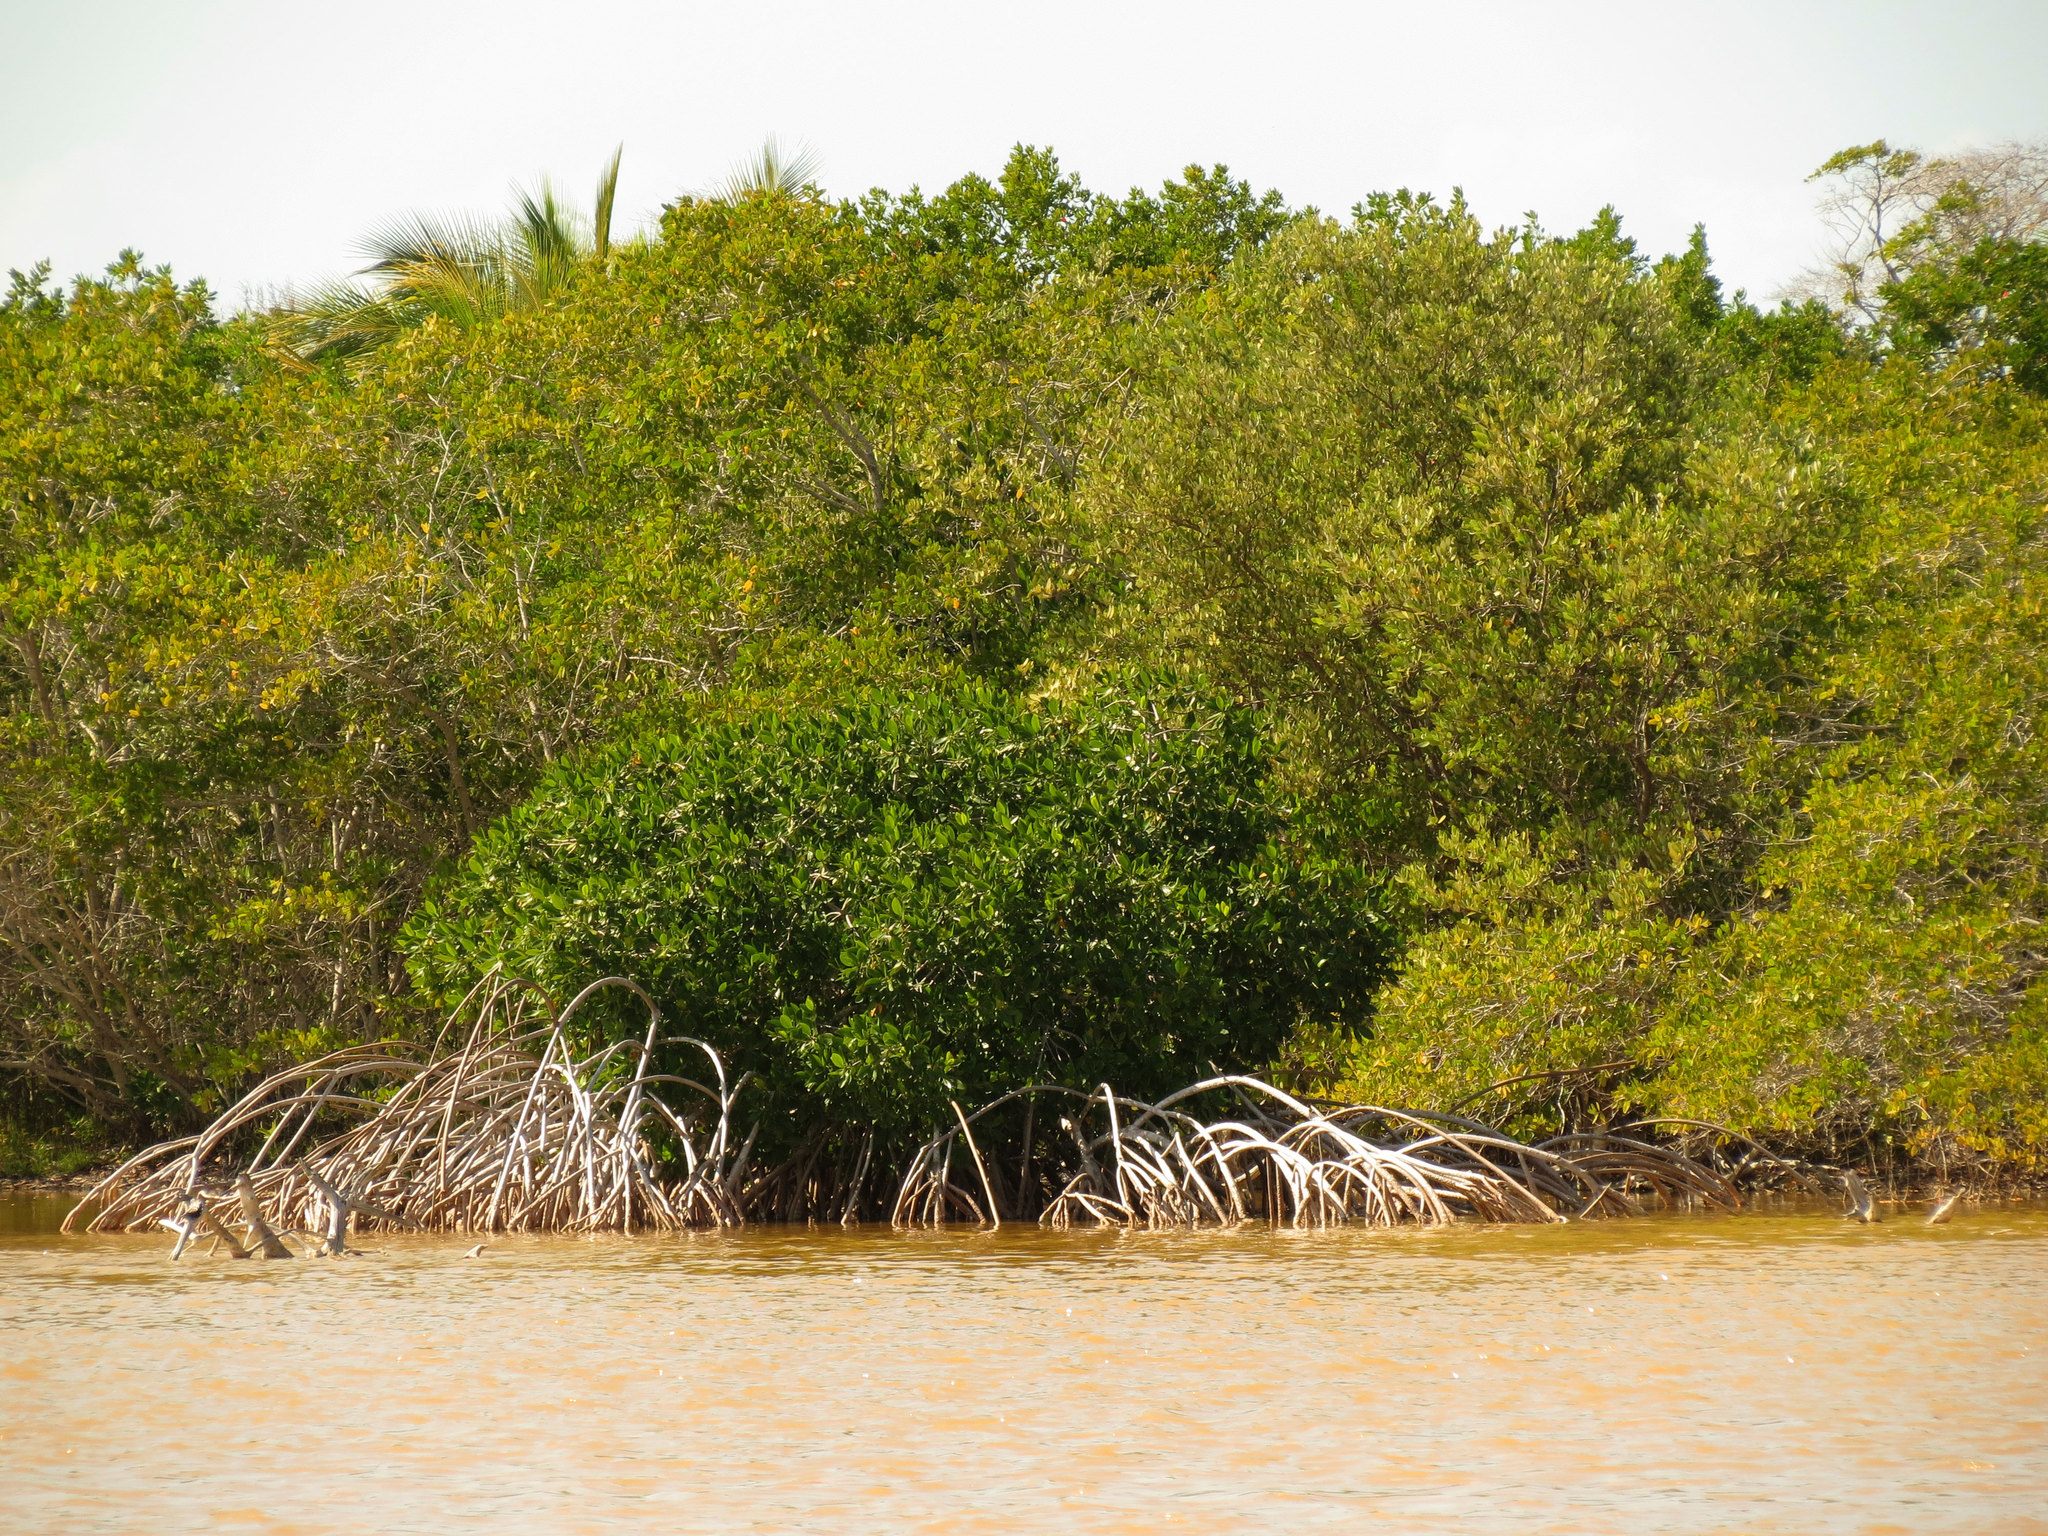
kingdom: Plantae
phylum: Tracheophyta
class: Magnoliopsida
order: Malpighiales
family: Rhizophoraceae
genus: Rhizophora
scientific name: Rhizophora mangle
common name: Red mangrove
